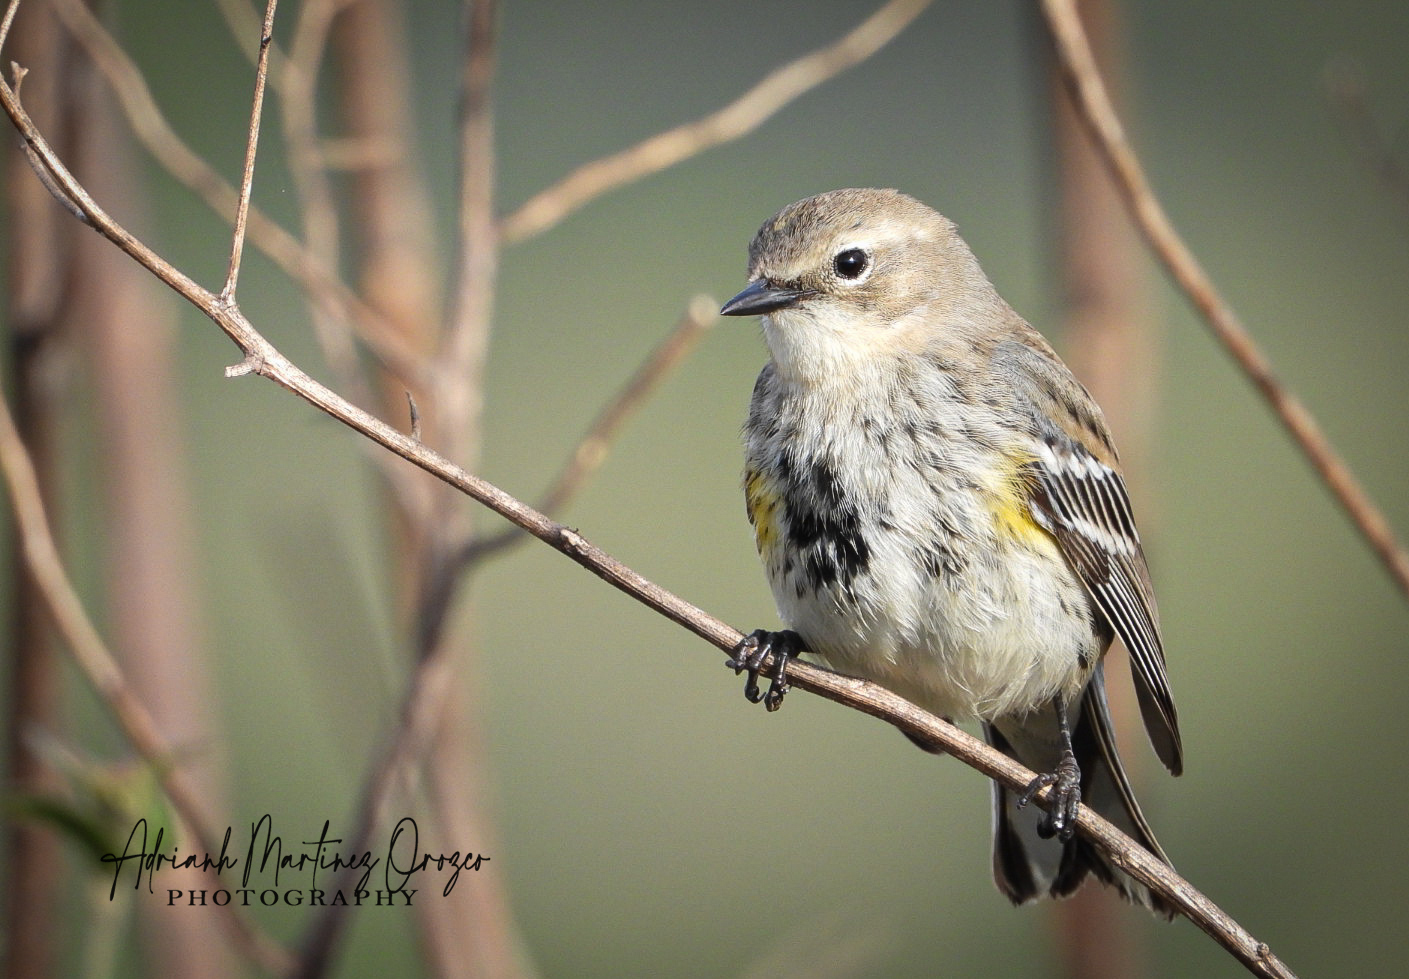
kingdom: Animalia
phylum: Chordata
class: Aves
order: Passeriformes
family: Parulidae
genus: Setophaga
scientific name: Setophaga coronata
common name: Myrtle warbler
